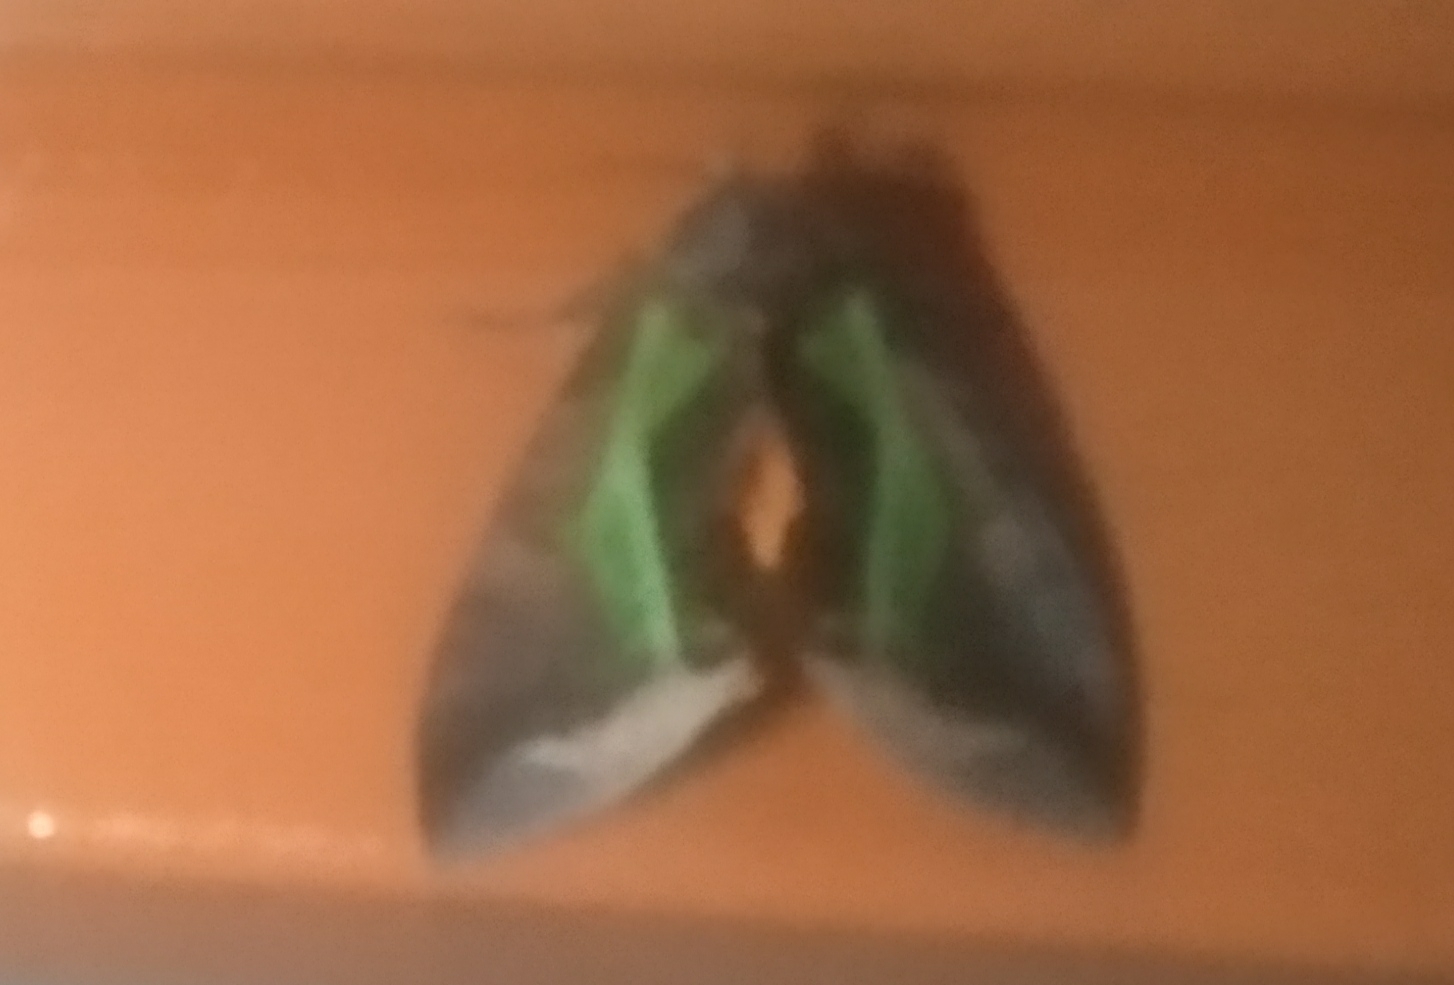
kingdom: Animalia
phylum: Arthropoda
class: Insecta
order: Lepidoptera
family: Erebidae
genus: Eudocima
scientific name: Eudocima homaena
